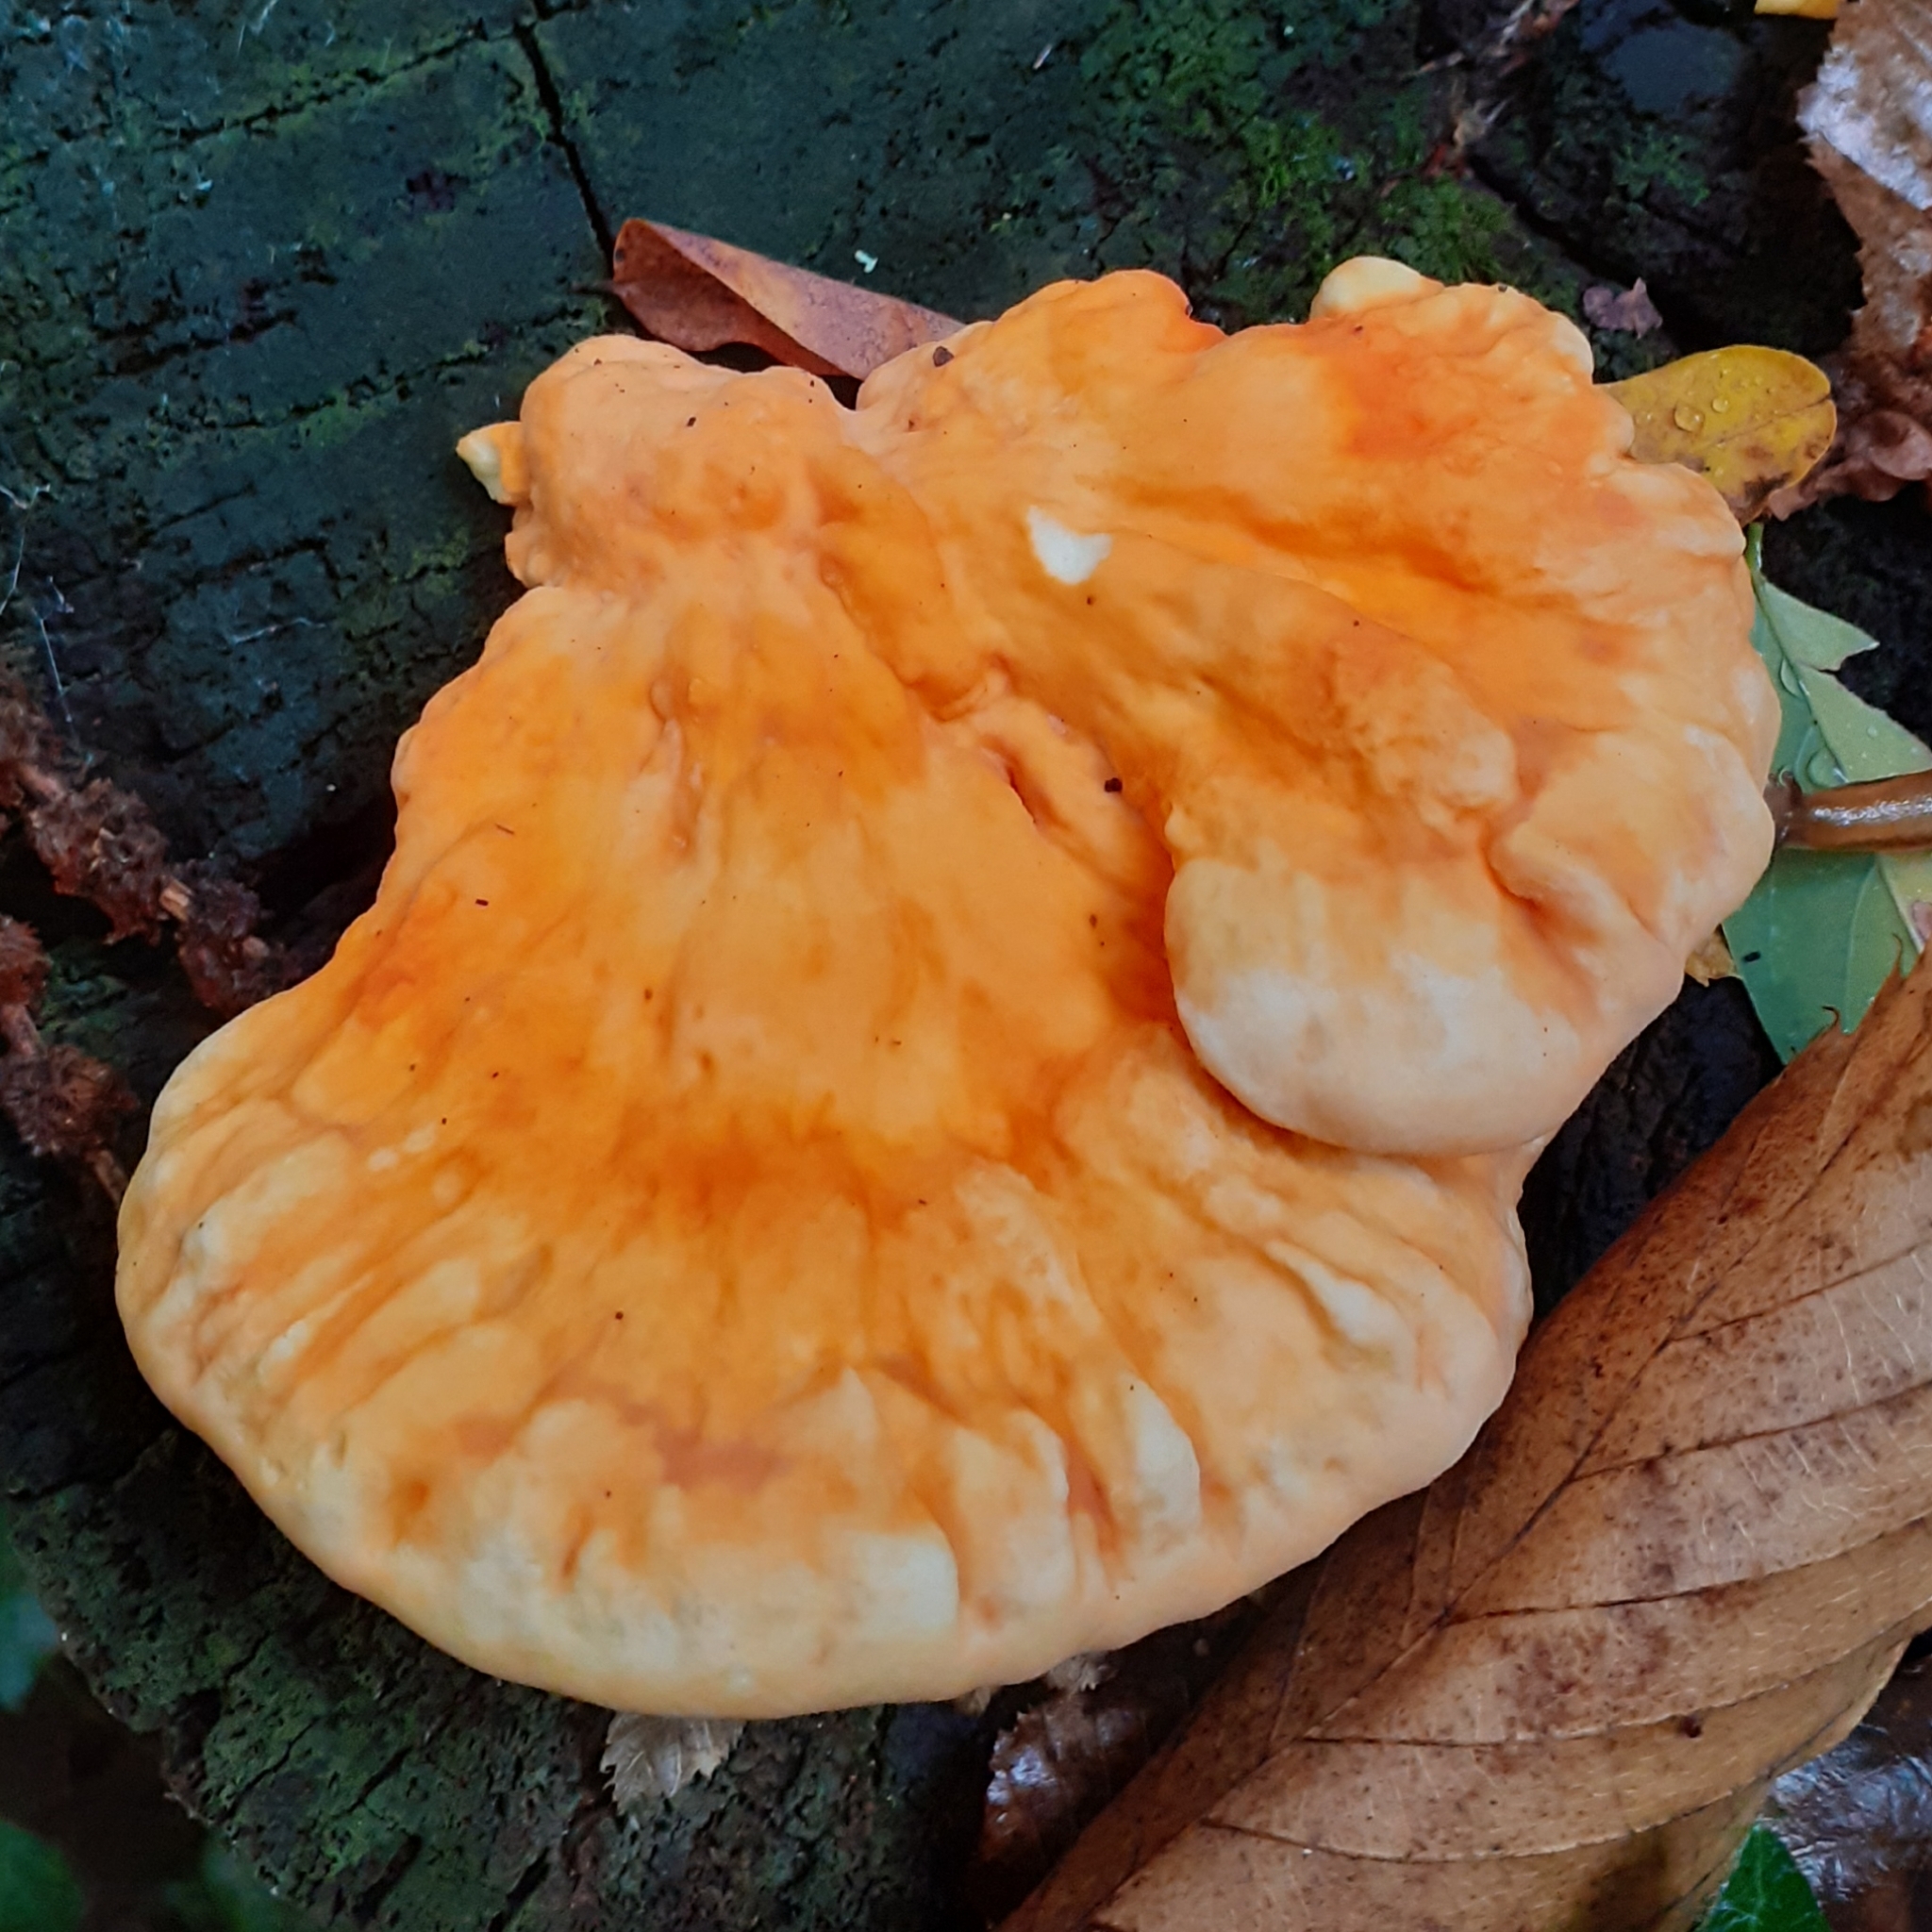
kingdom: Fungi
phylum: Basidiomycota
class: Agaricomycetes
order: Polyporales
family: Laetiporaceae
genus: Laetiporus
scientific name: Laetiporus sulphureus
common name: Chicken of the woods
